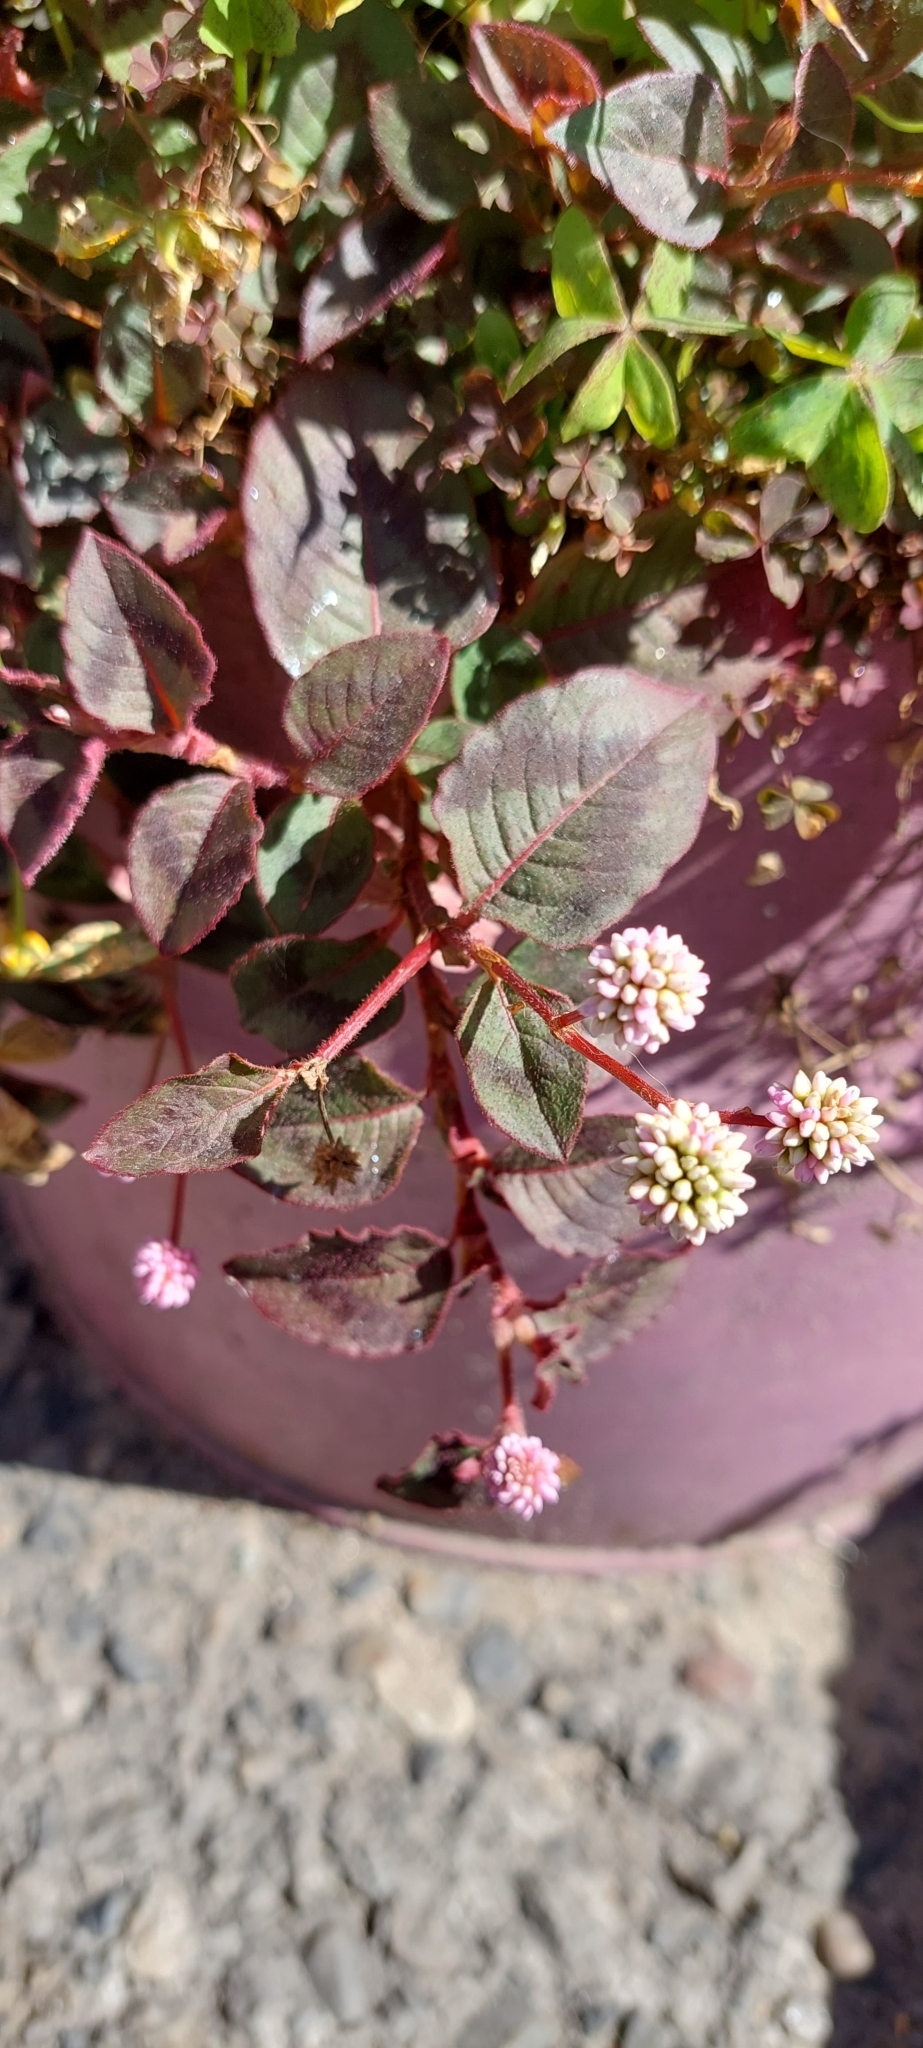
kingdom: Plantae
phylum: Tracheophyta
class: Magnoliopsida
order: Caryophyllales
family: Polygonaceae
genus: Persicaria
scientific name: Persicaria capitata
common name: Pinkhead smartweed
